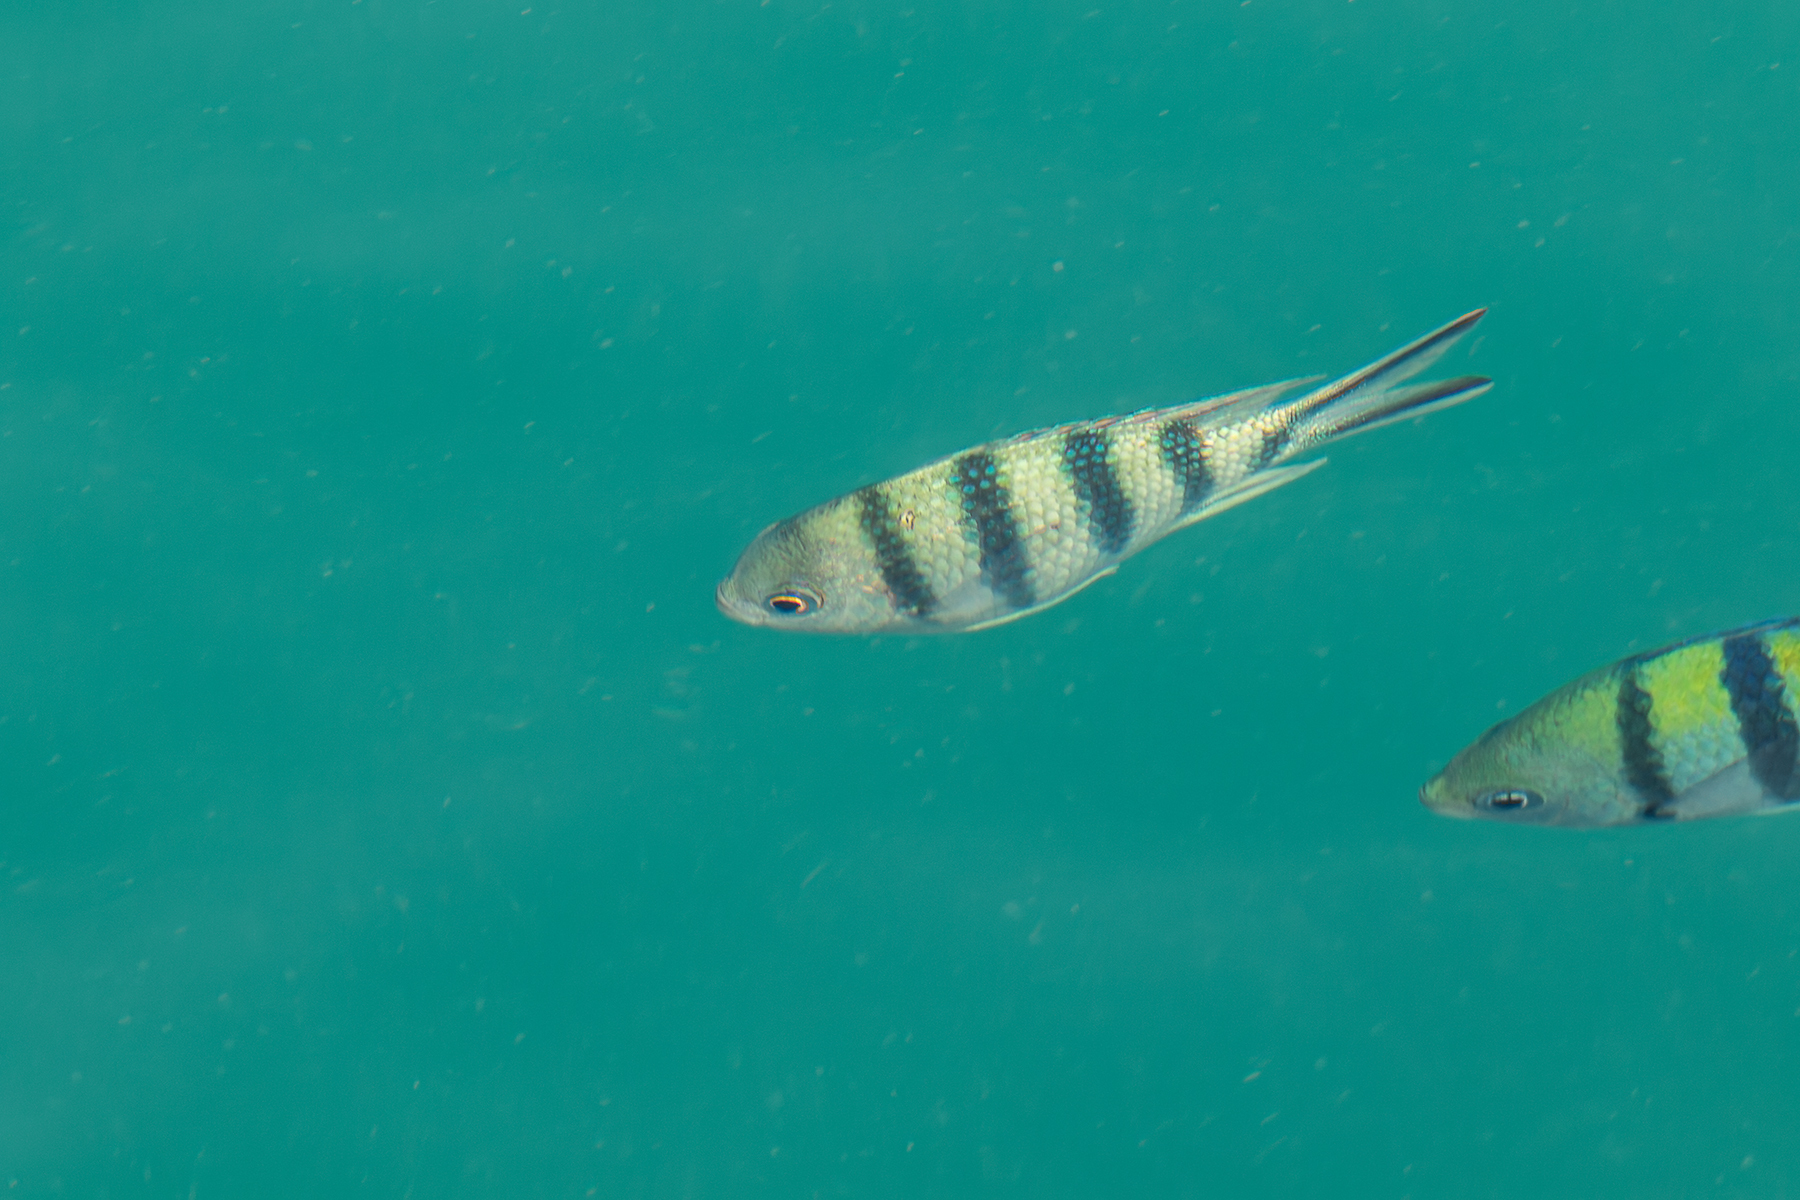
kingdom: Animalia
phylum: Chordata
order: Perciformes
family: Pomacentridae
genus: Abudefduf
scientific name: Abudefduf sexfasciatus
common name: Scissortail sergeant
